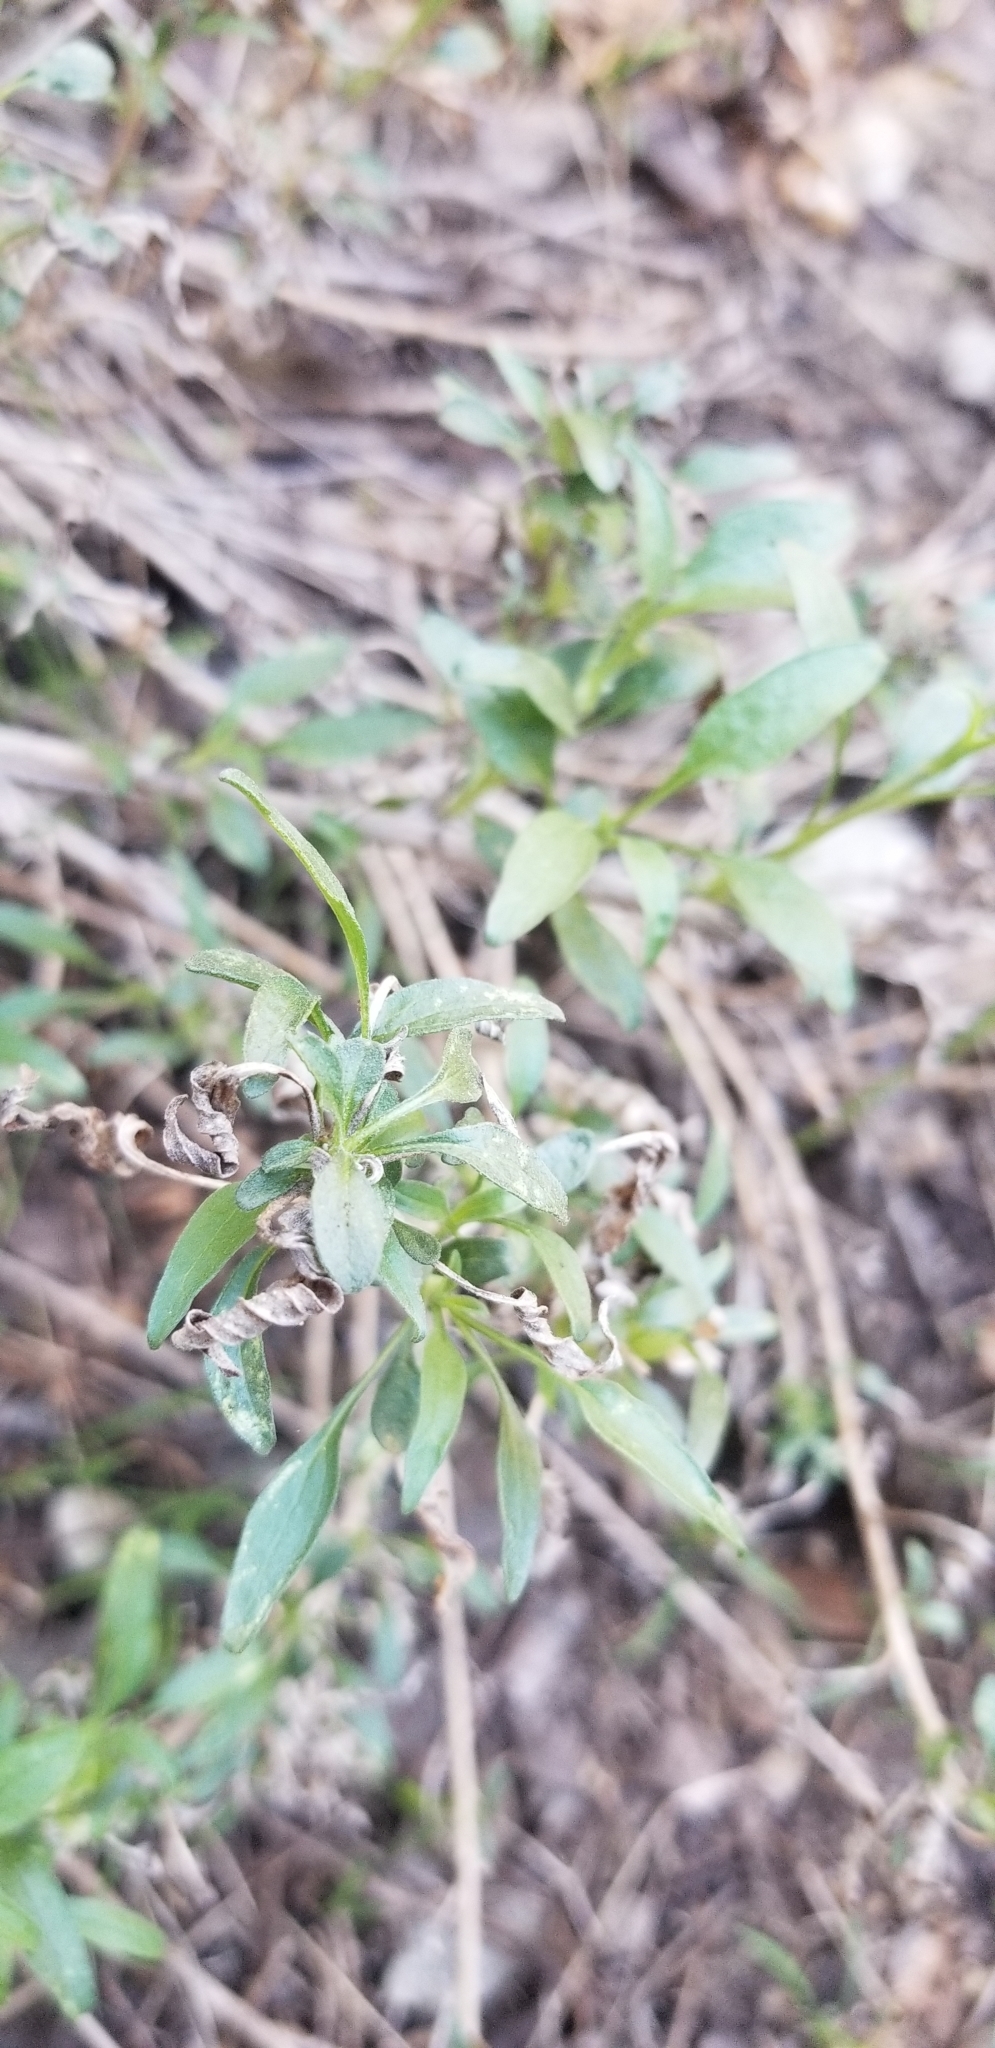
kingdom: Plantae
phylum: Tracheophyta
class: Magnoliopsida
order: Asterales
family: Asteraceae
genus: Encelia
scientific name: Encelia californica
